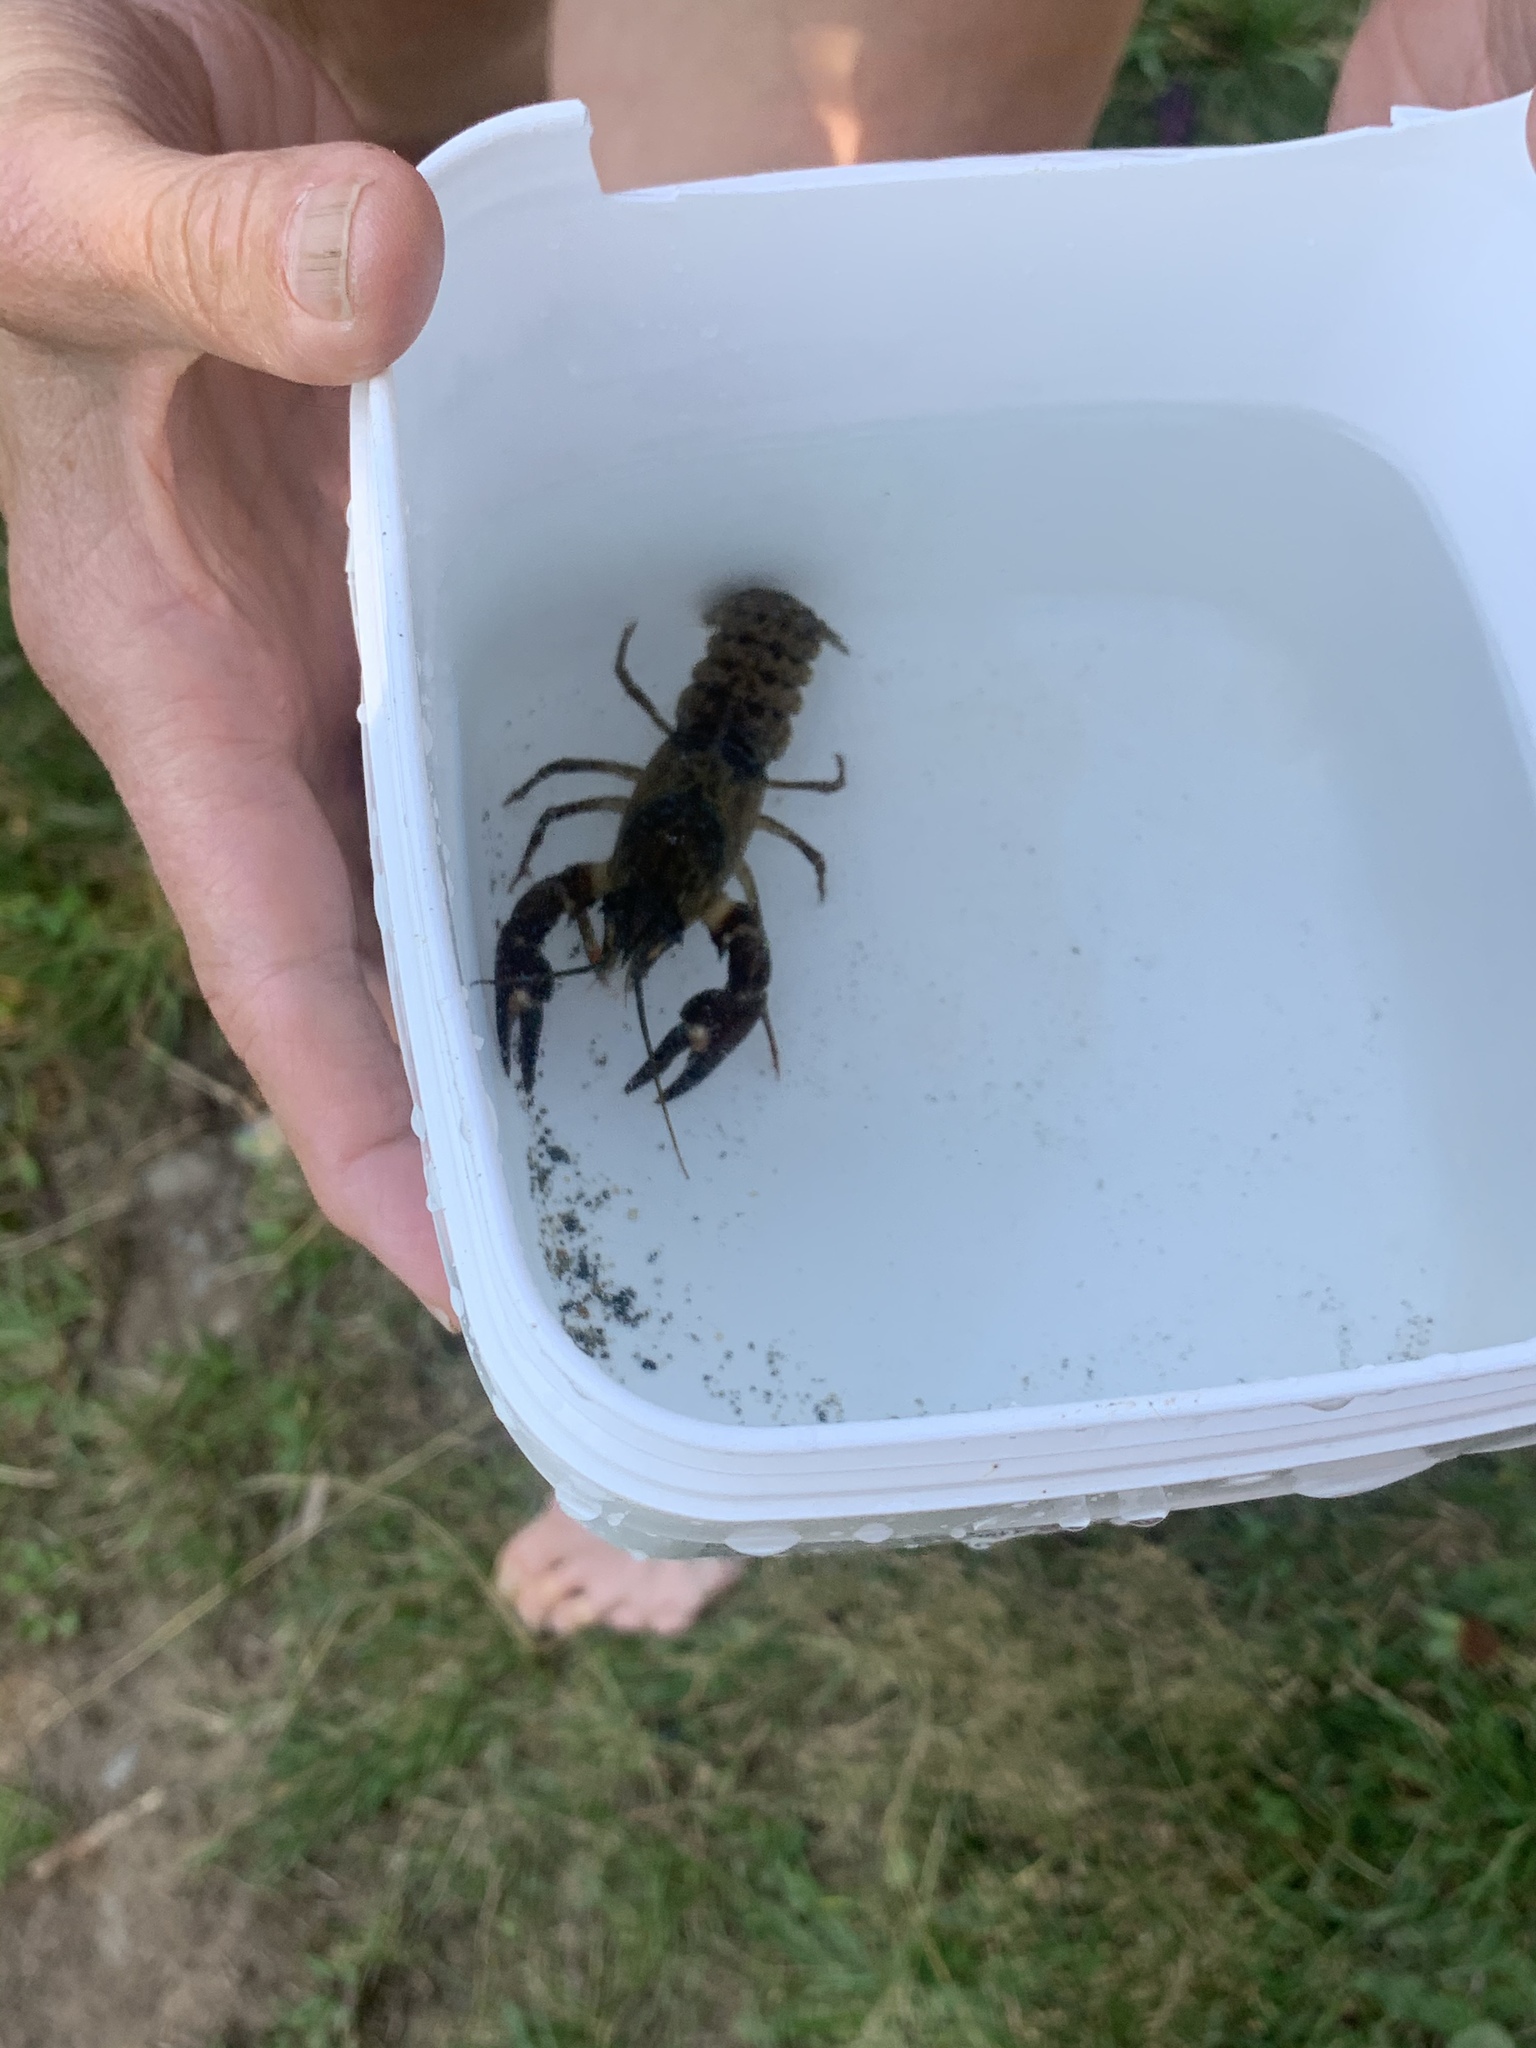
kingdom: Animalia
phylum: Arthropoda
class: Malacostraca
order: Decapoda
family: Astacidae
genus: Pacifastacus
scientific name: Pacifastacus leniusculus
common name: Signal crayfish
